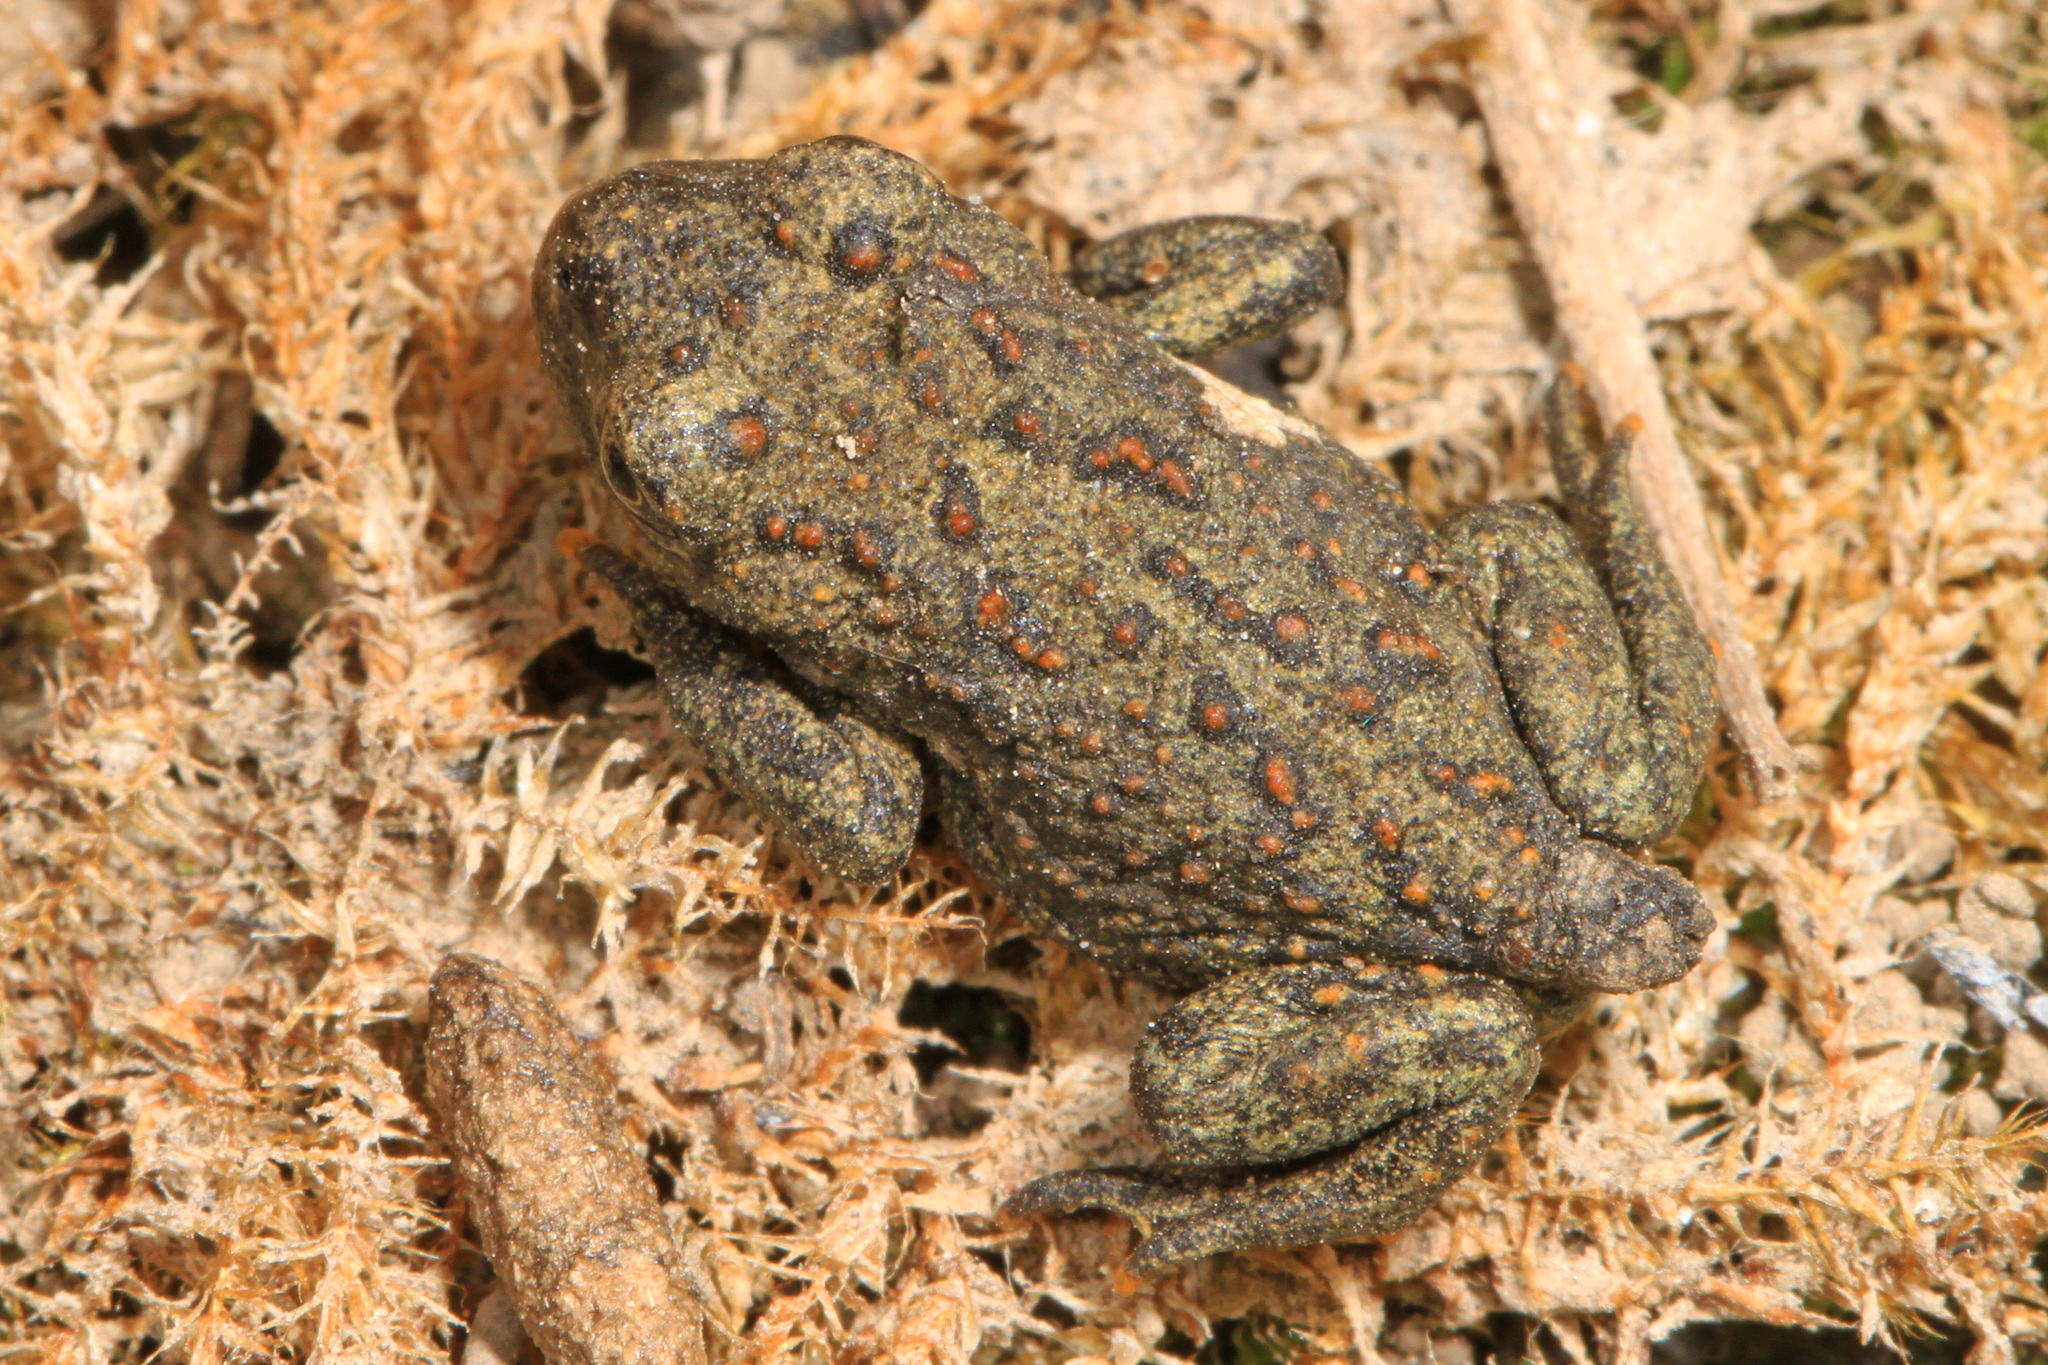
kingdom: Animalia
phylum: Chordata
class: Amphibia
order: Anura
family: Bufonidae
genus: Anaxyrus
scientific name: Anaxyrus boreas
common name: Western toad
